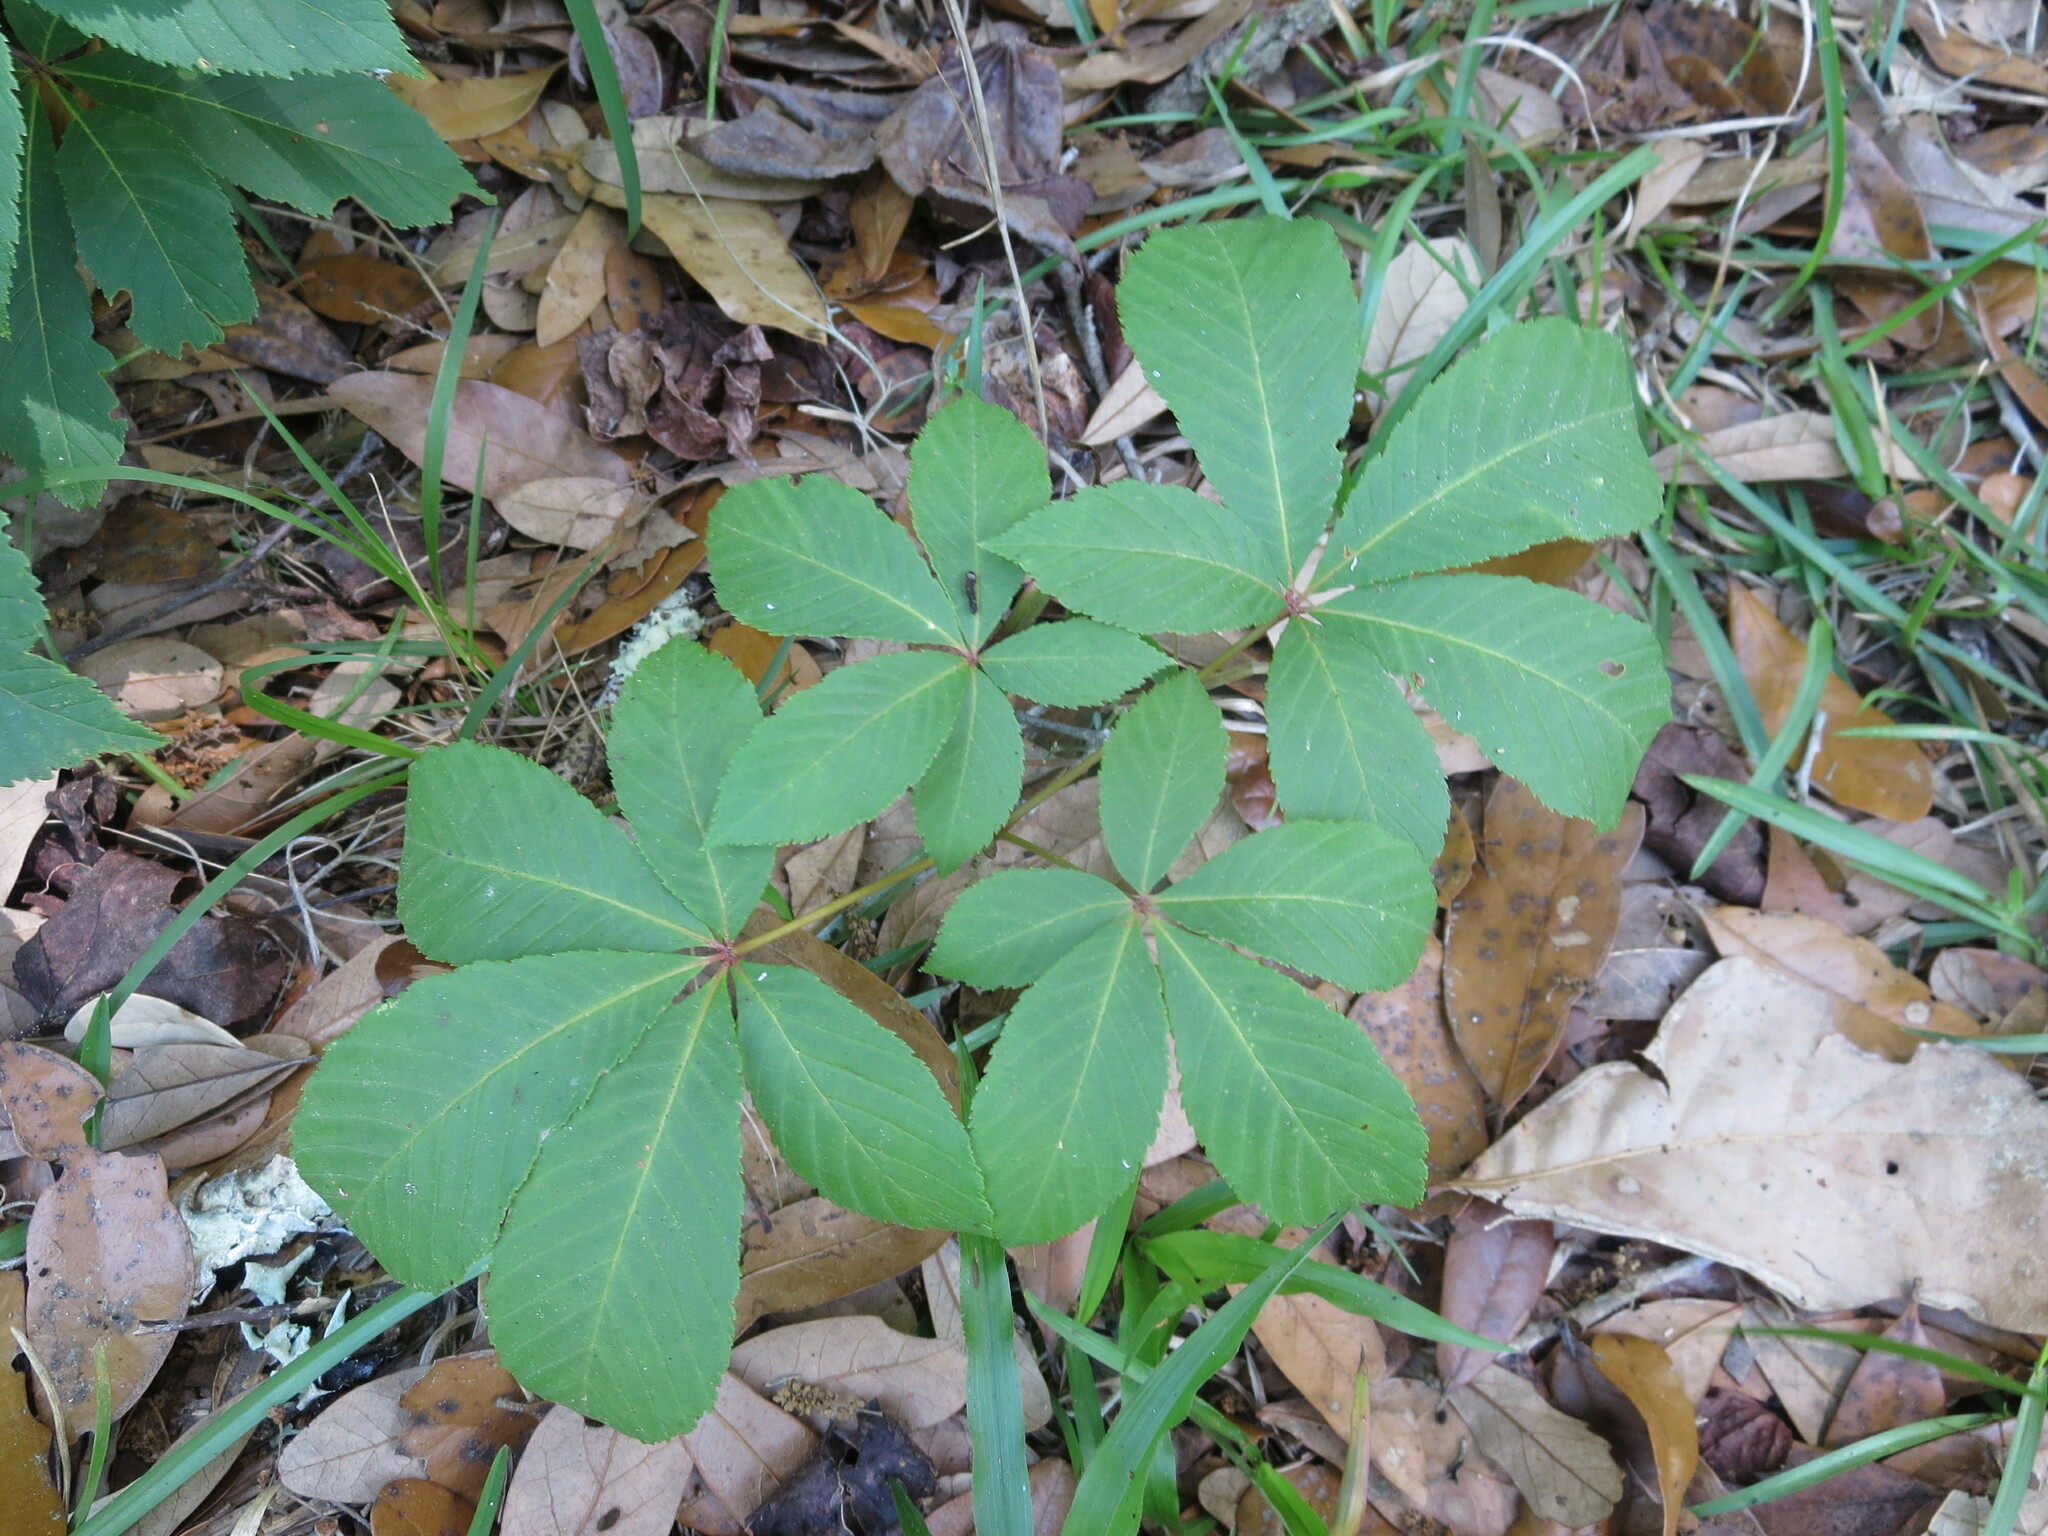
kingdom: Plantae
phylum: Tracheophyta
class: Magnoliopsida
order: Sapindales
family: Sapindaceae
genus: Aesculus
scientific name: Aesculus pavia
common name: Red buckeye
